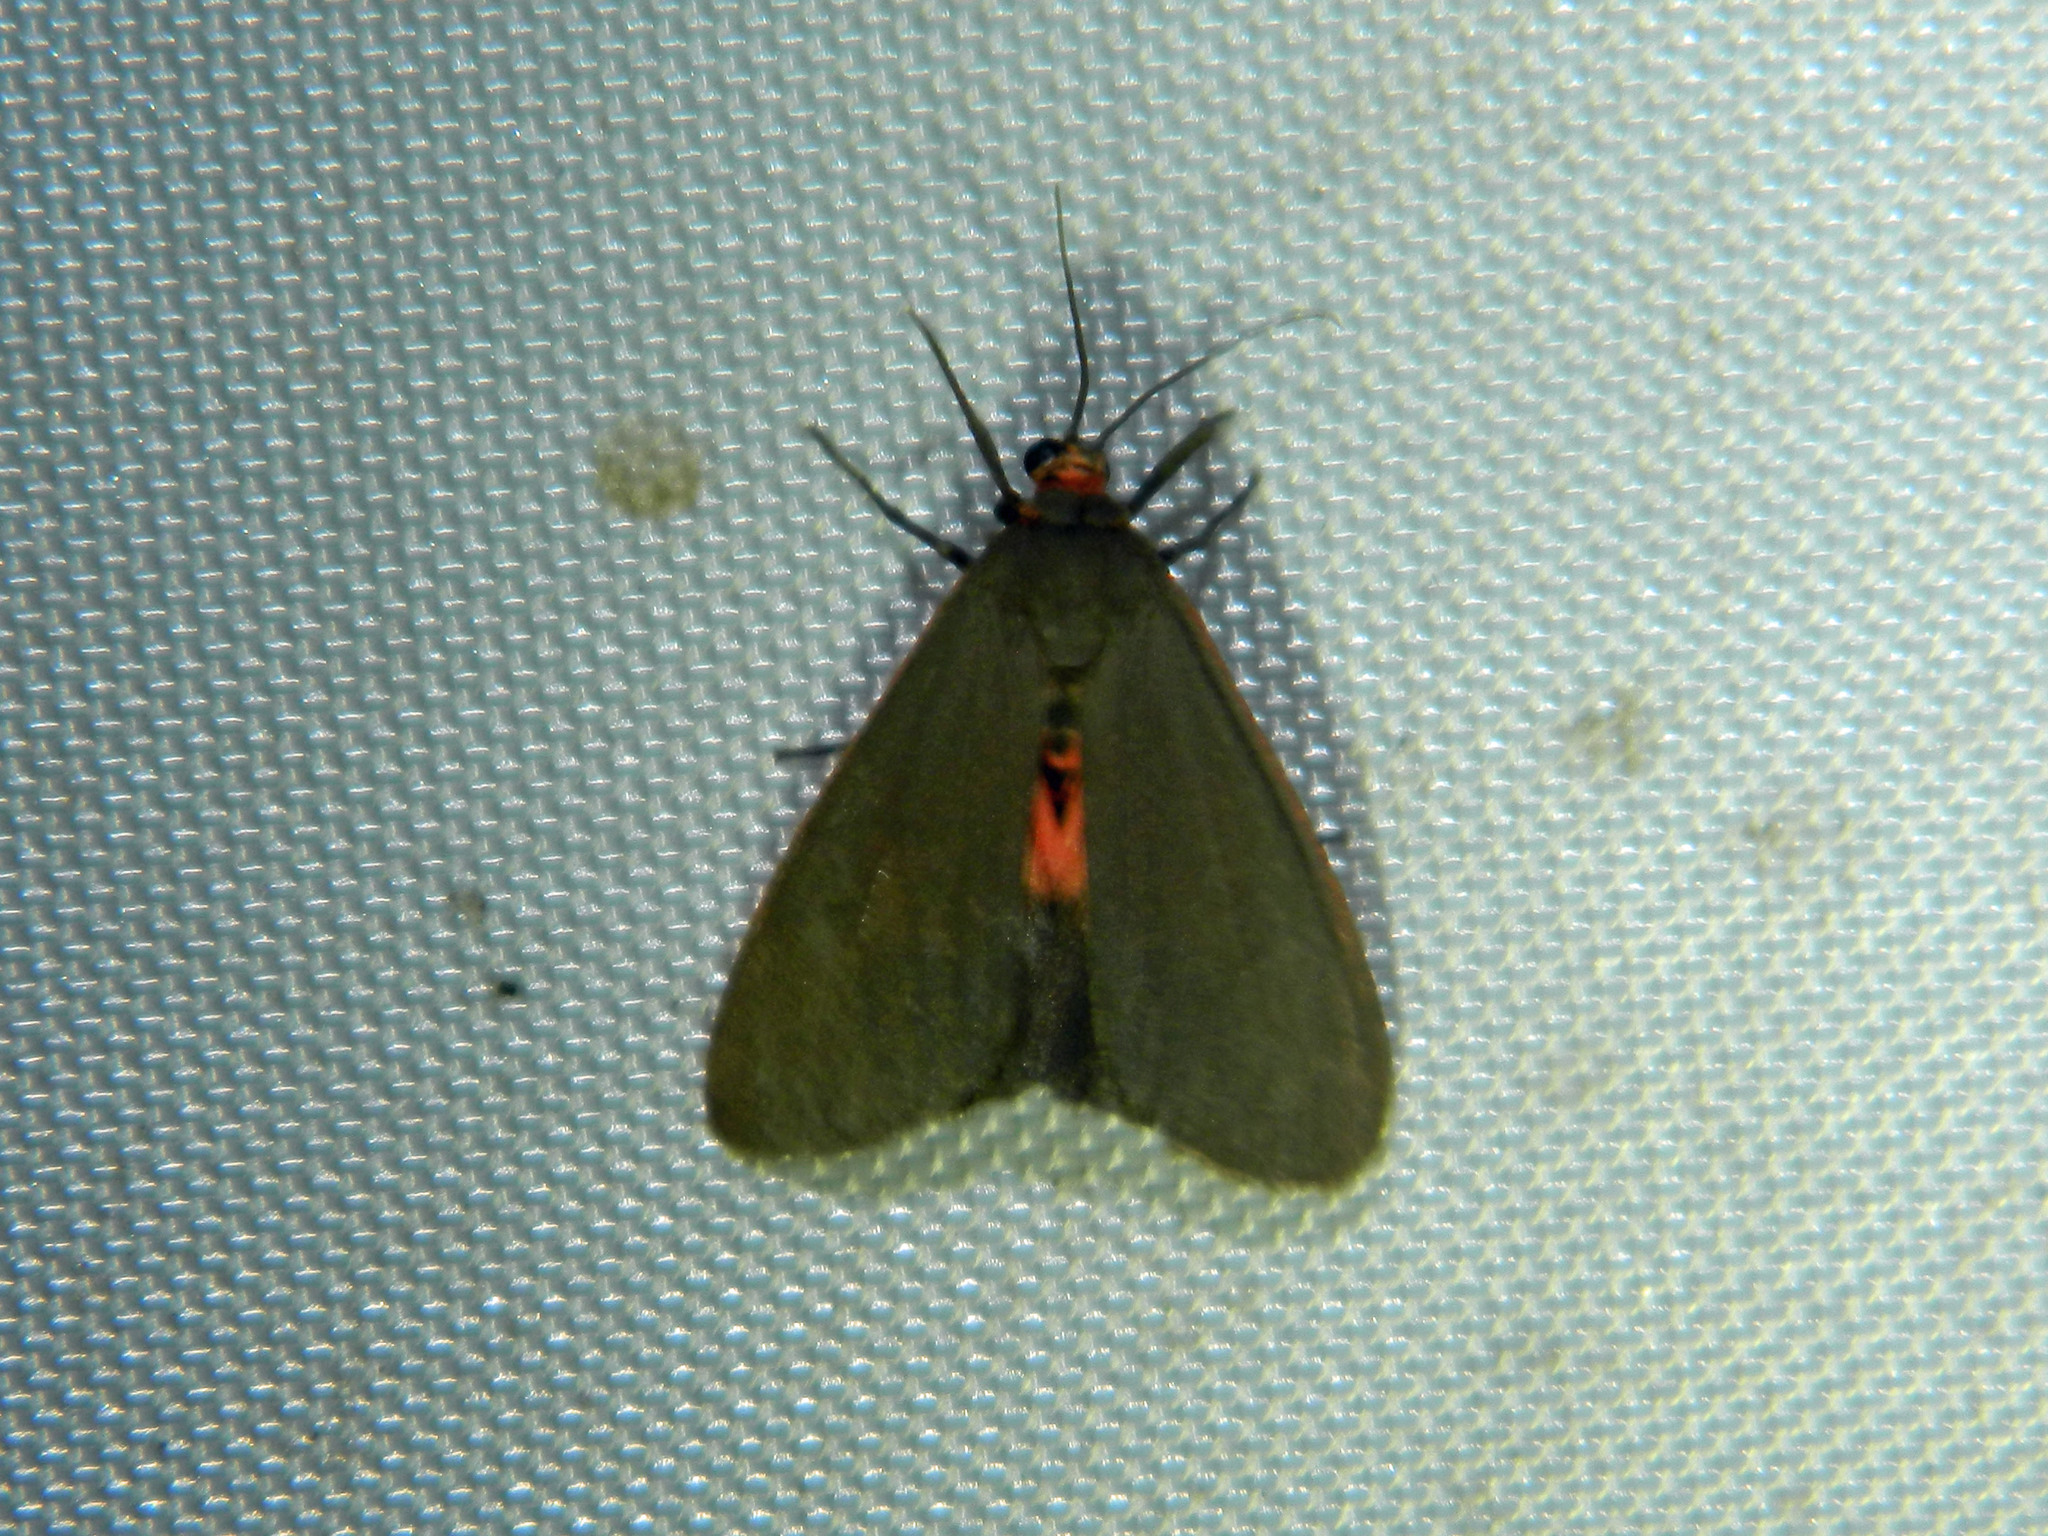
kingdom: Animalia
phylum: Arthropoda
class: Insecta
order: Lepidoptera
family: Erebidae
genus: Virbia
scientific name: Virbia laeta
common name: Joyful holomelina moth
